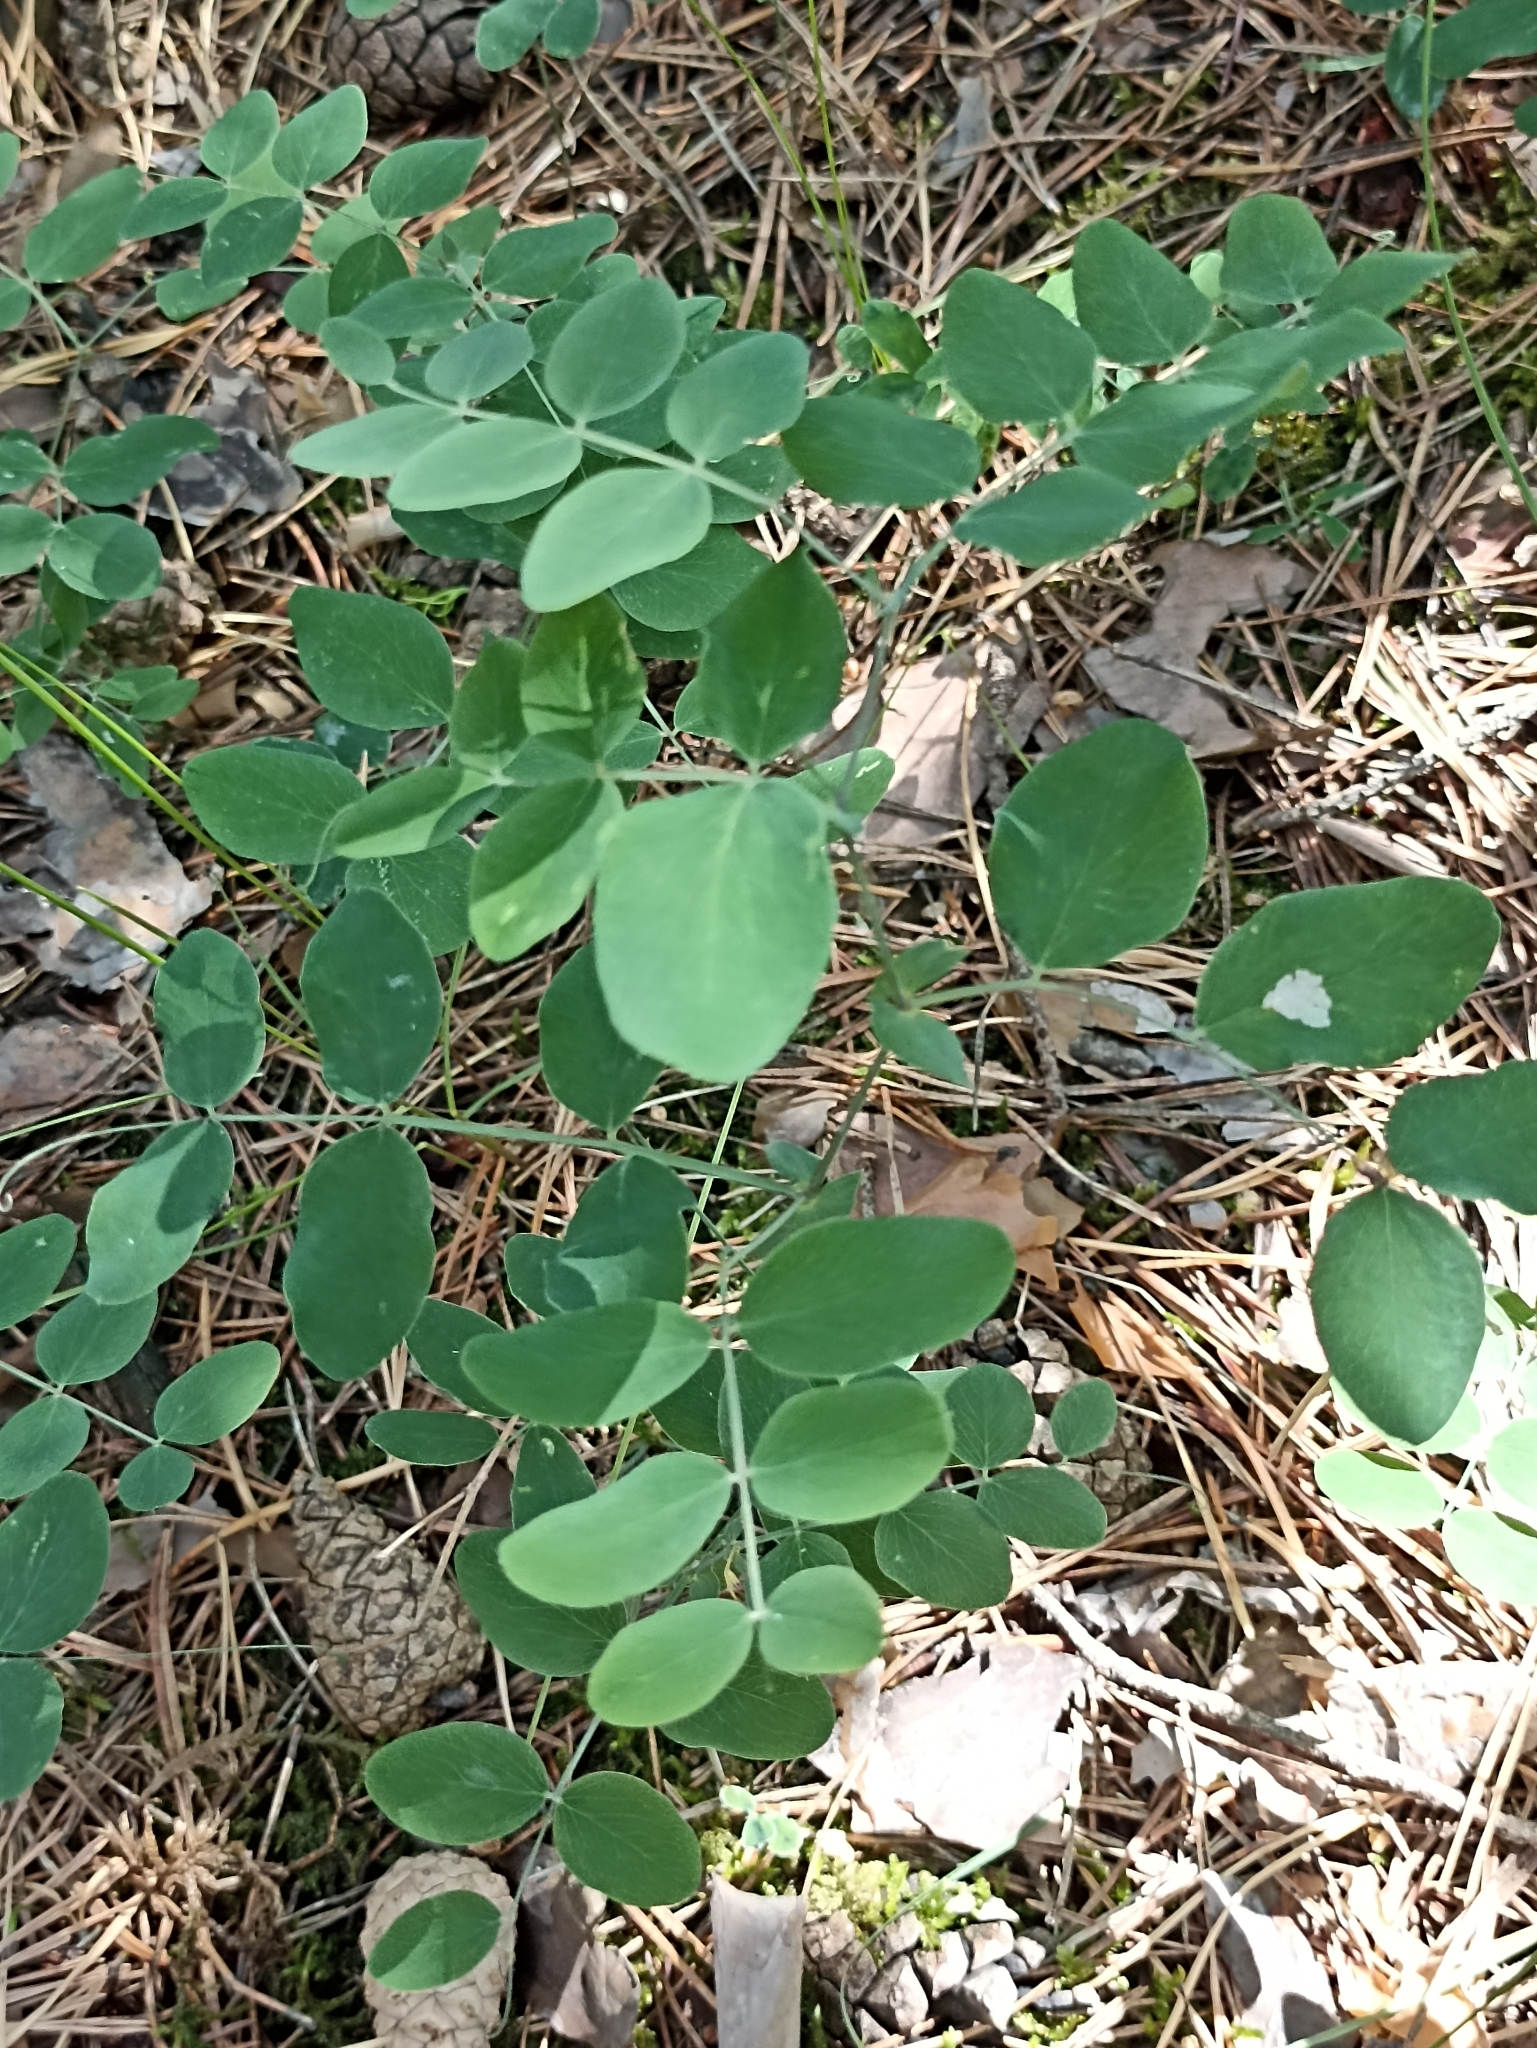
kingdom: Plantae
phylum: Tracheophyta
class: Magnoliopsida
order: Fabales
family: Fabaceae
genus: Lathyrus
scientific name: Lathyrus humilis
